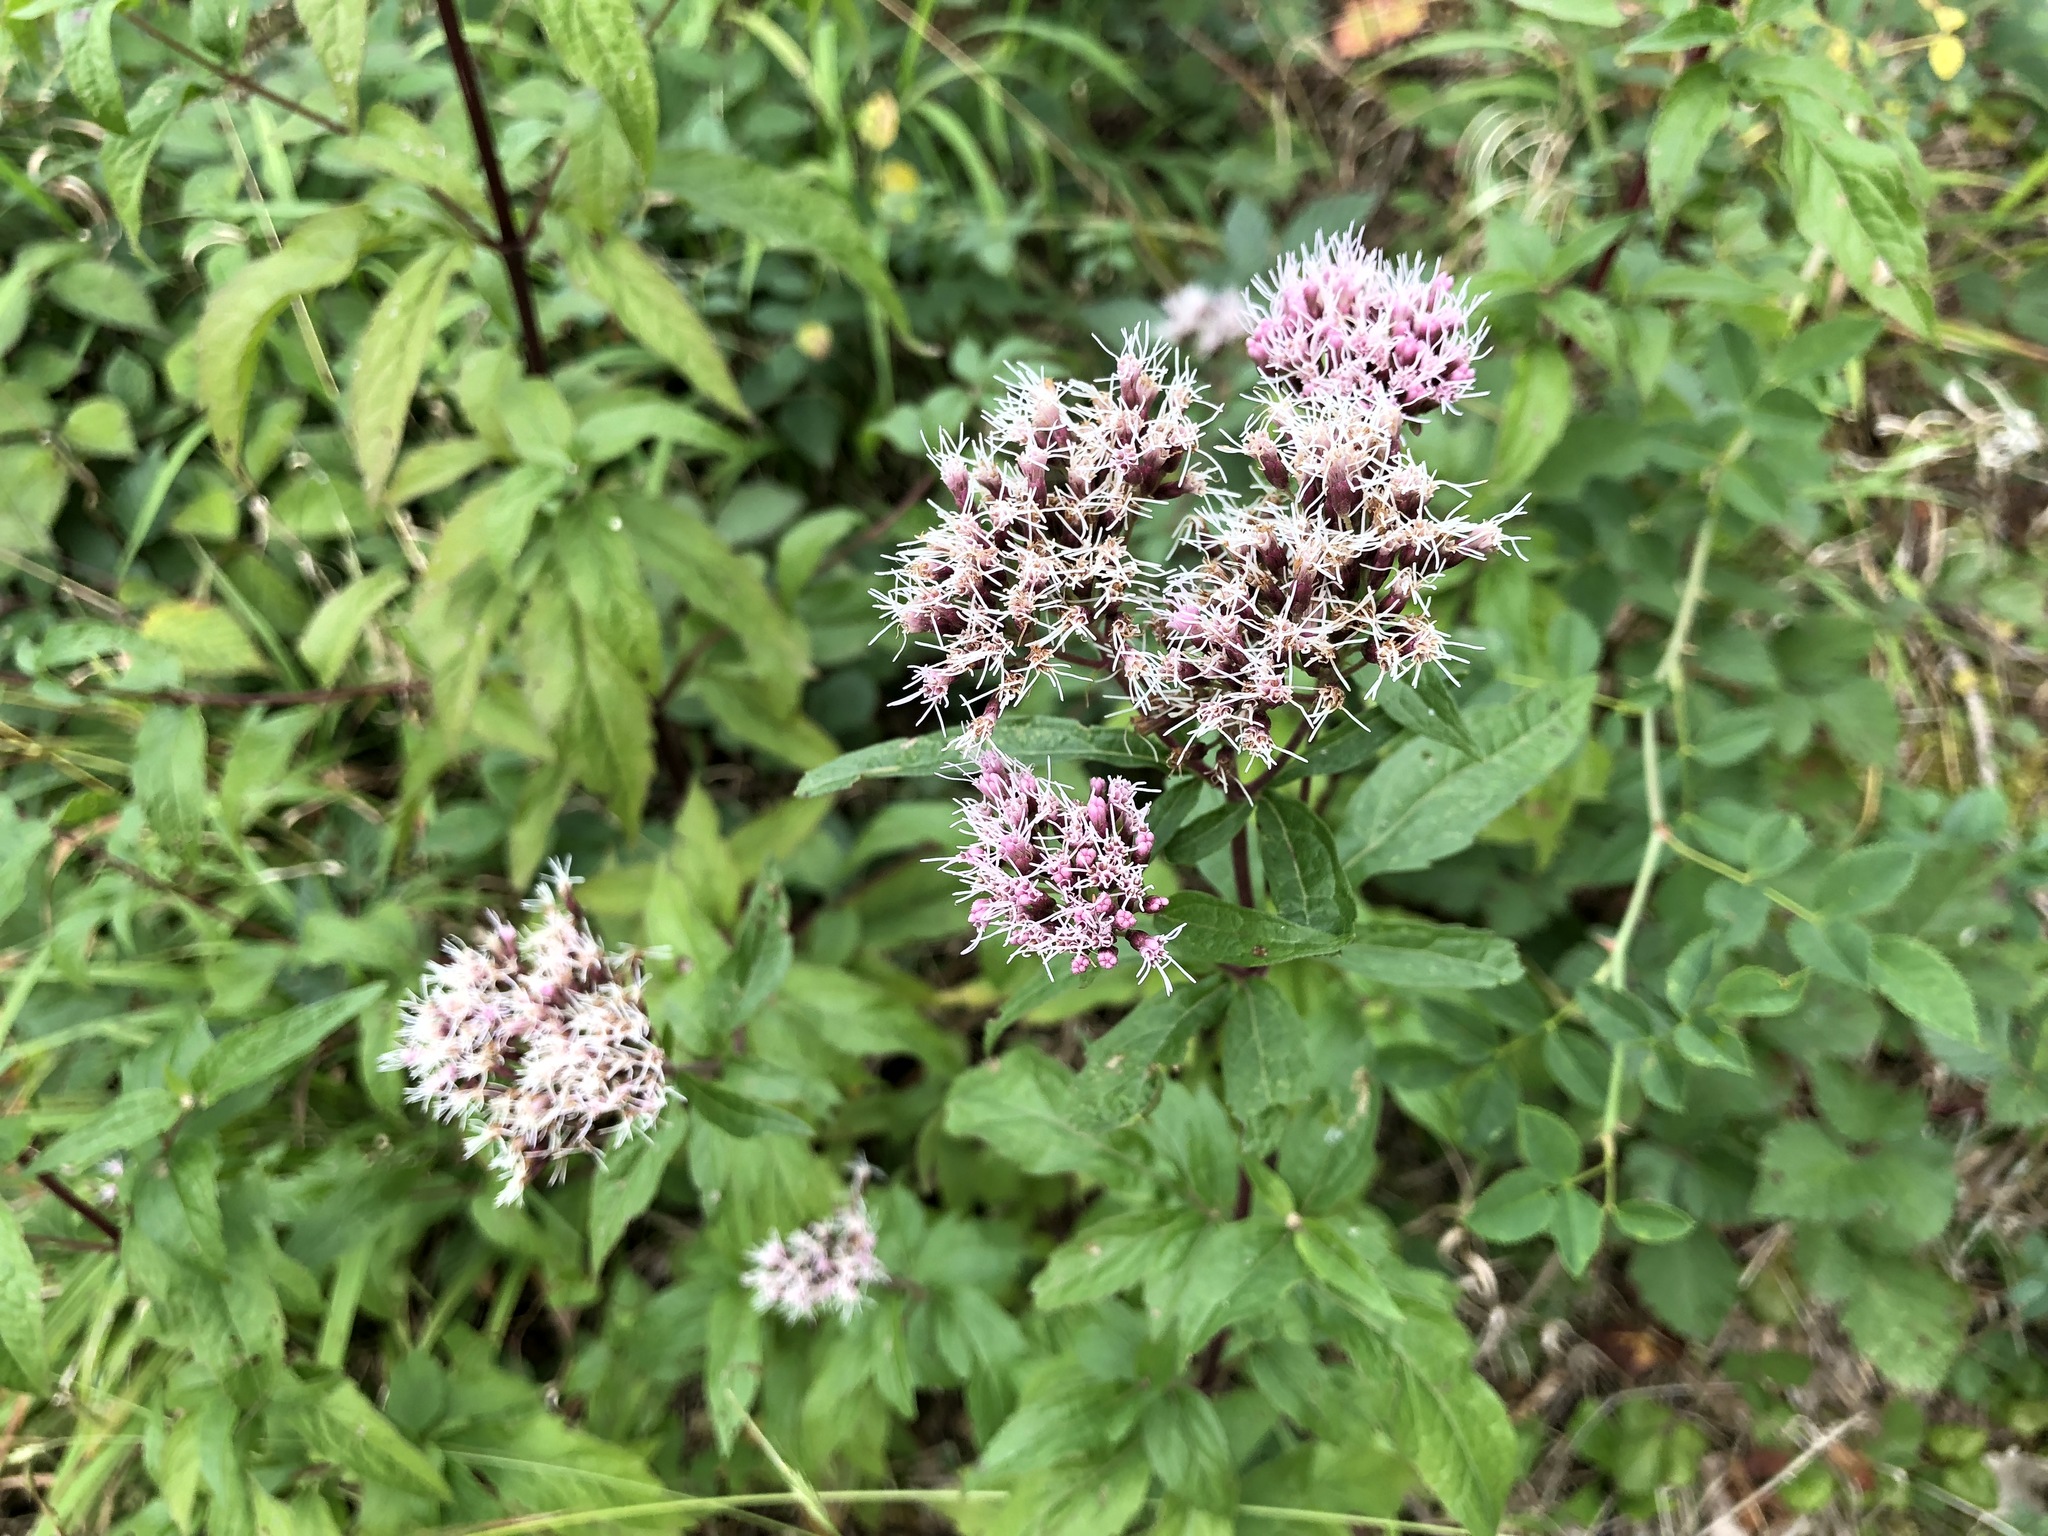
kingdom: Plantae
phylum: Tracheophyta
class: Magnoliopsida
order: Asterales
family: Asteraceae
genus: Eupatorium
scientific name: Eupatorium cannabinum
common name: Hemp-agrimony
